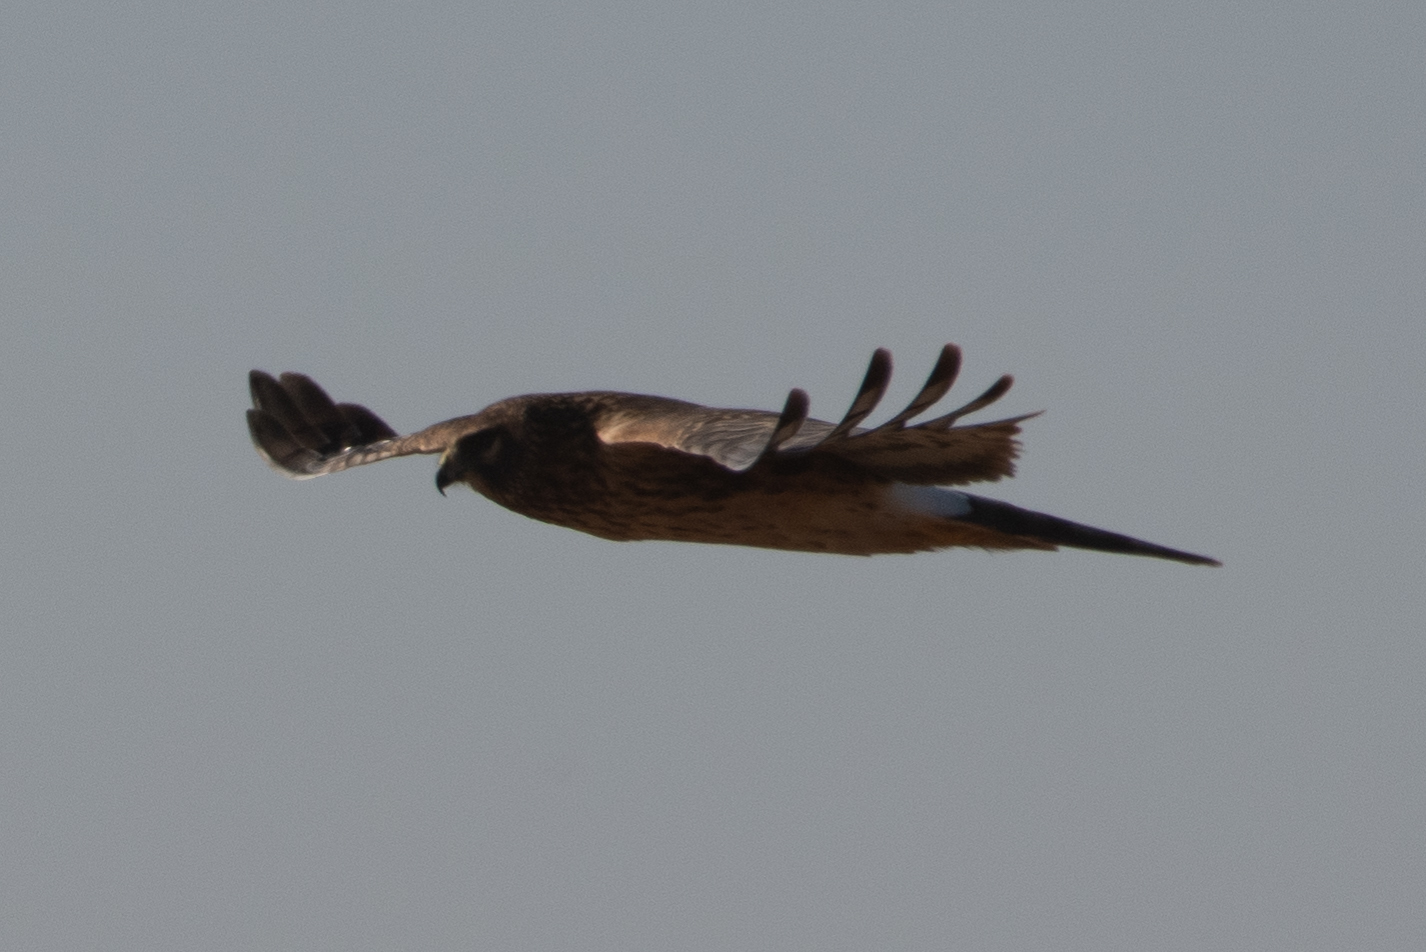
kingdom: Animalia
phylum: Chordata
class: Aves
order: Accipitriformes
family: Accipitridae
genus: Circus
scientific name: Circus cyaneus
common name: Hen harrier
